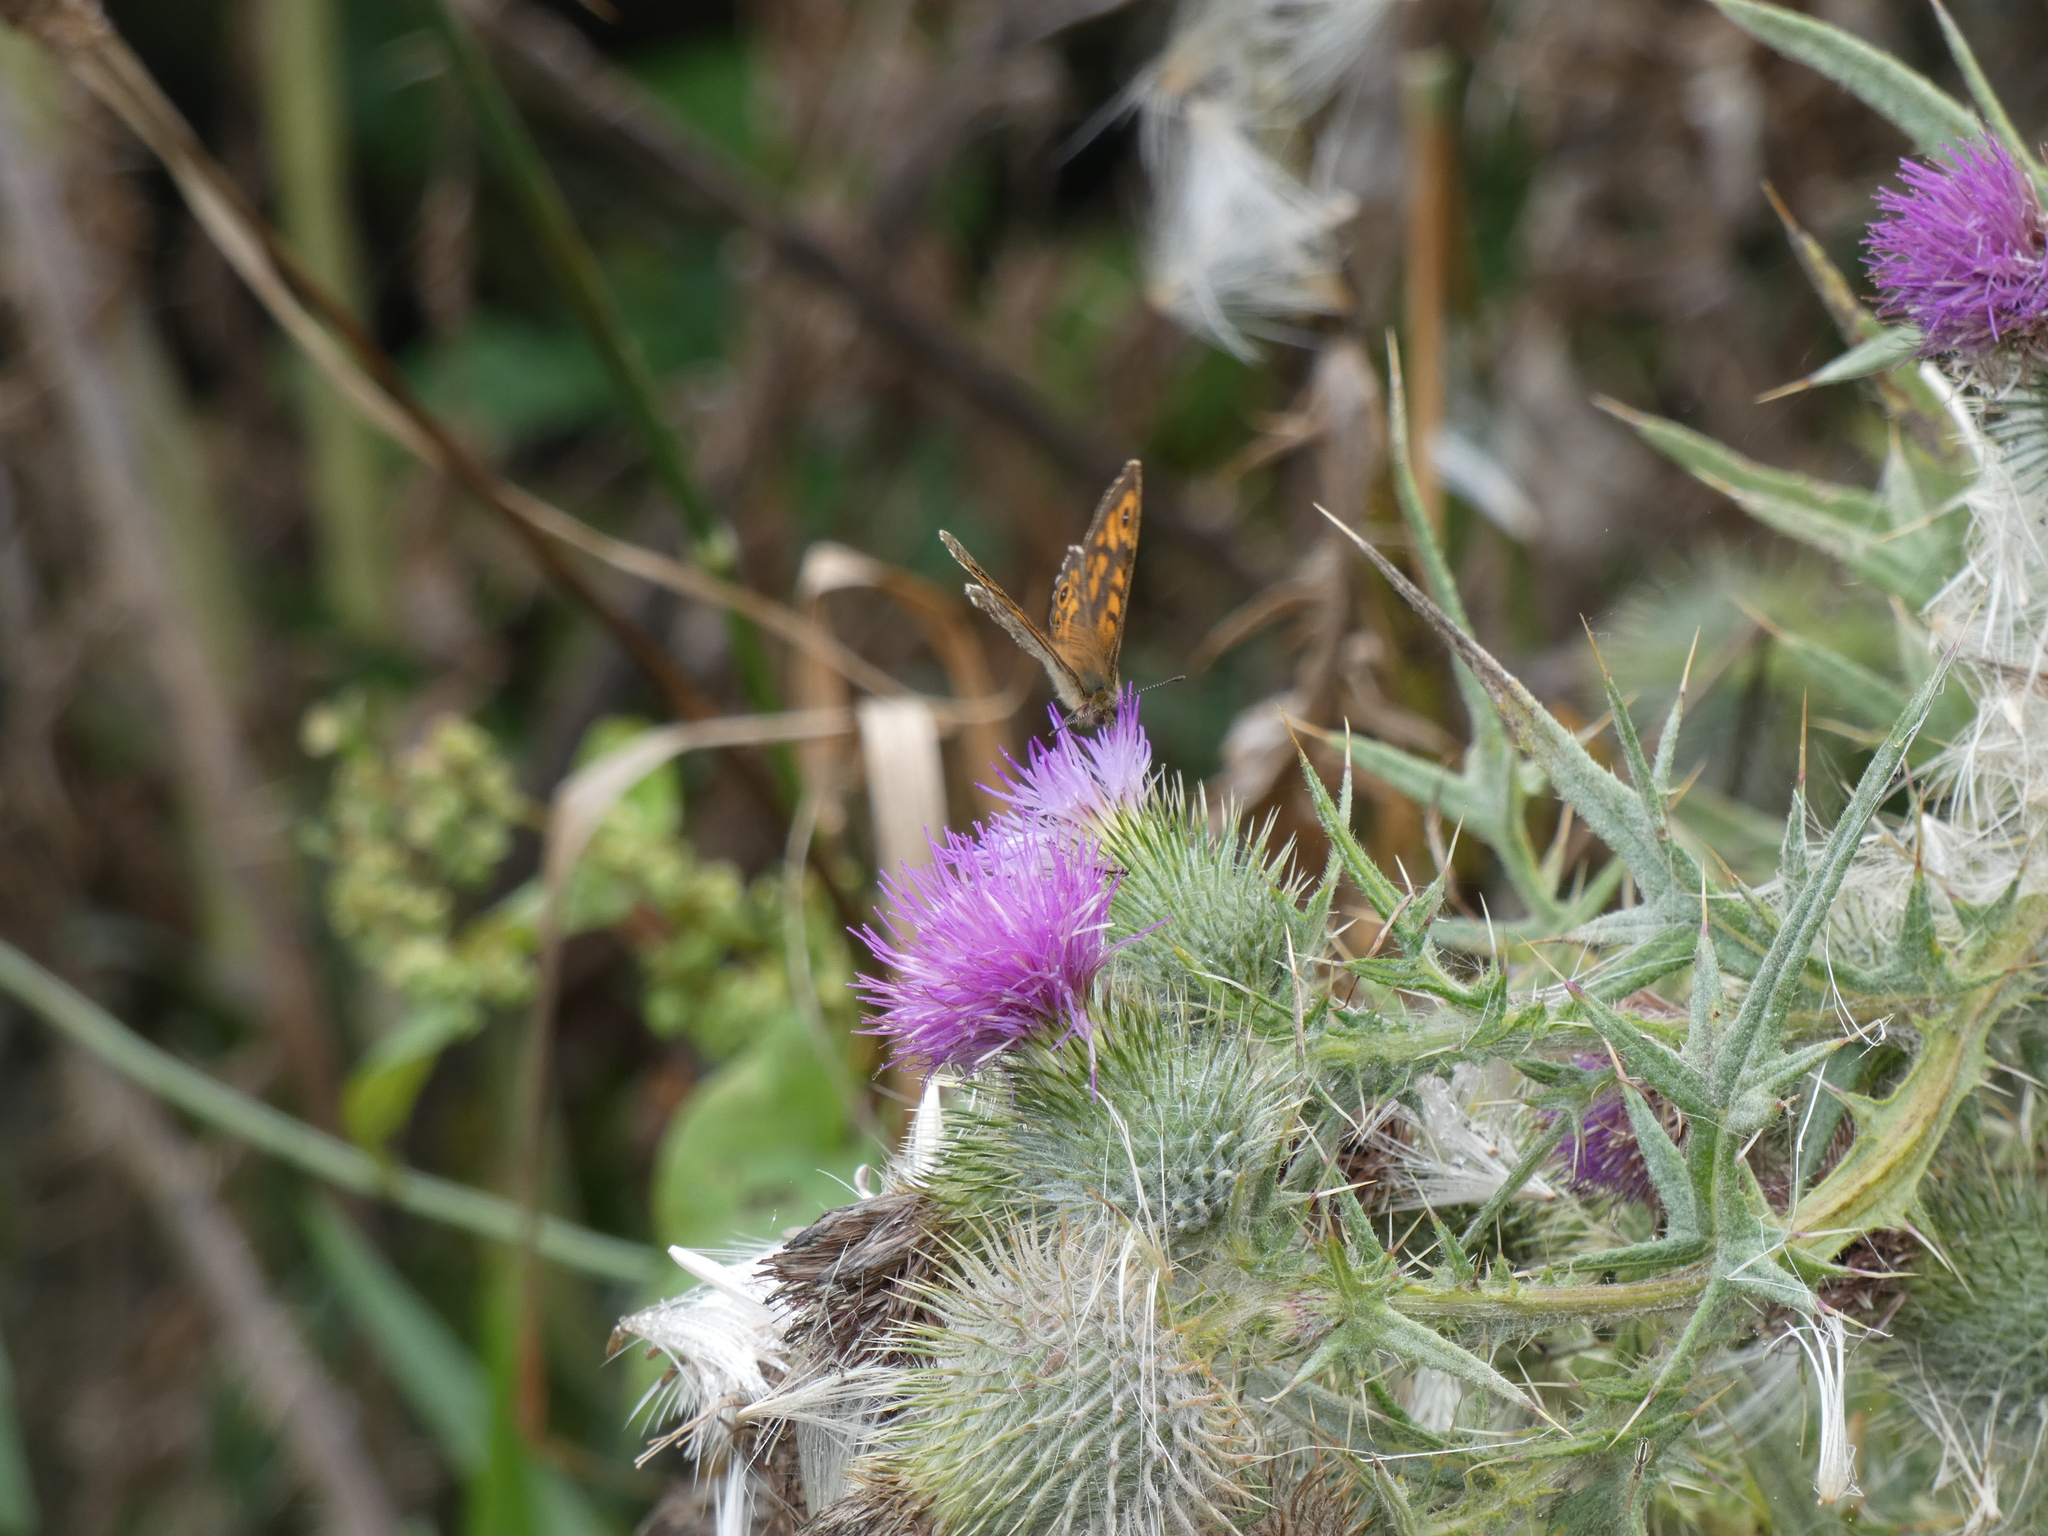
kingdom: Animalia
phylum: Arthropoda
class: Insecta
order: Lepidoptera
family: Nymphalidae
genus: Pararge
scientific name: Pararge Lasiommata megera
